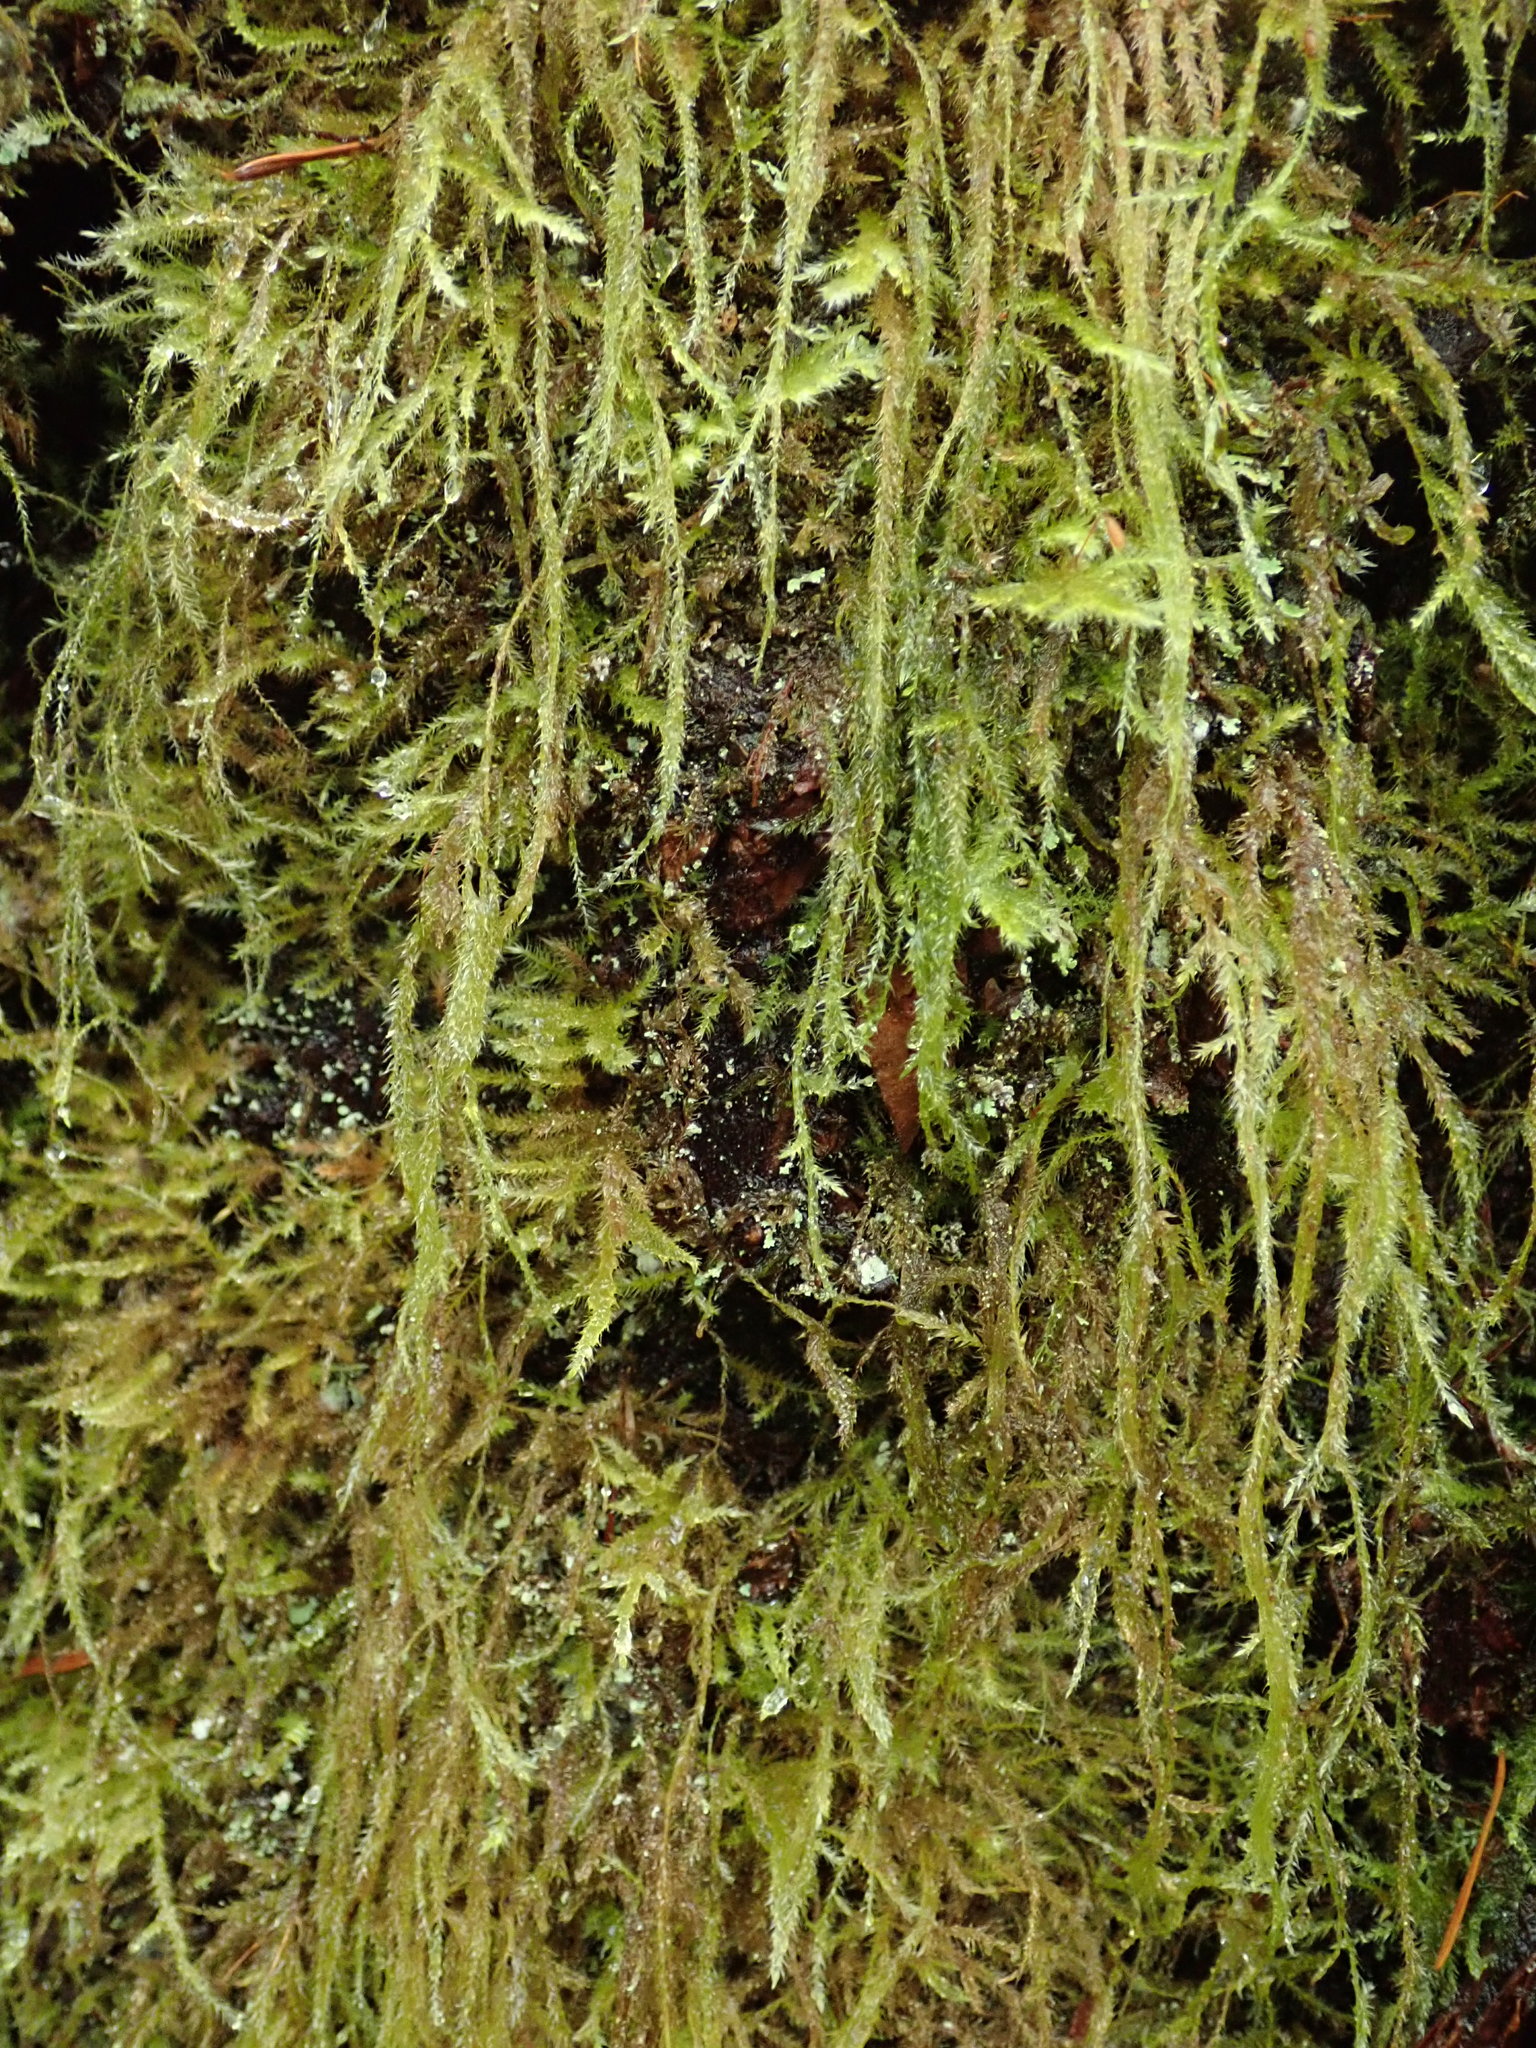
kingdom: Plantae
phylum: Bryophyta
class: Bryopsida
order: Hypnales
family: Lembophyllaceae
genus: Pseudisothecium
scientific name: Pseudisothecium stoloniferum
